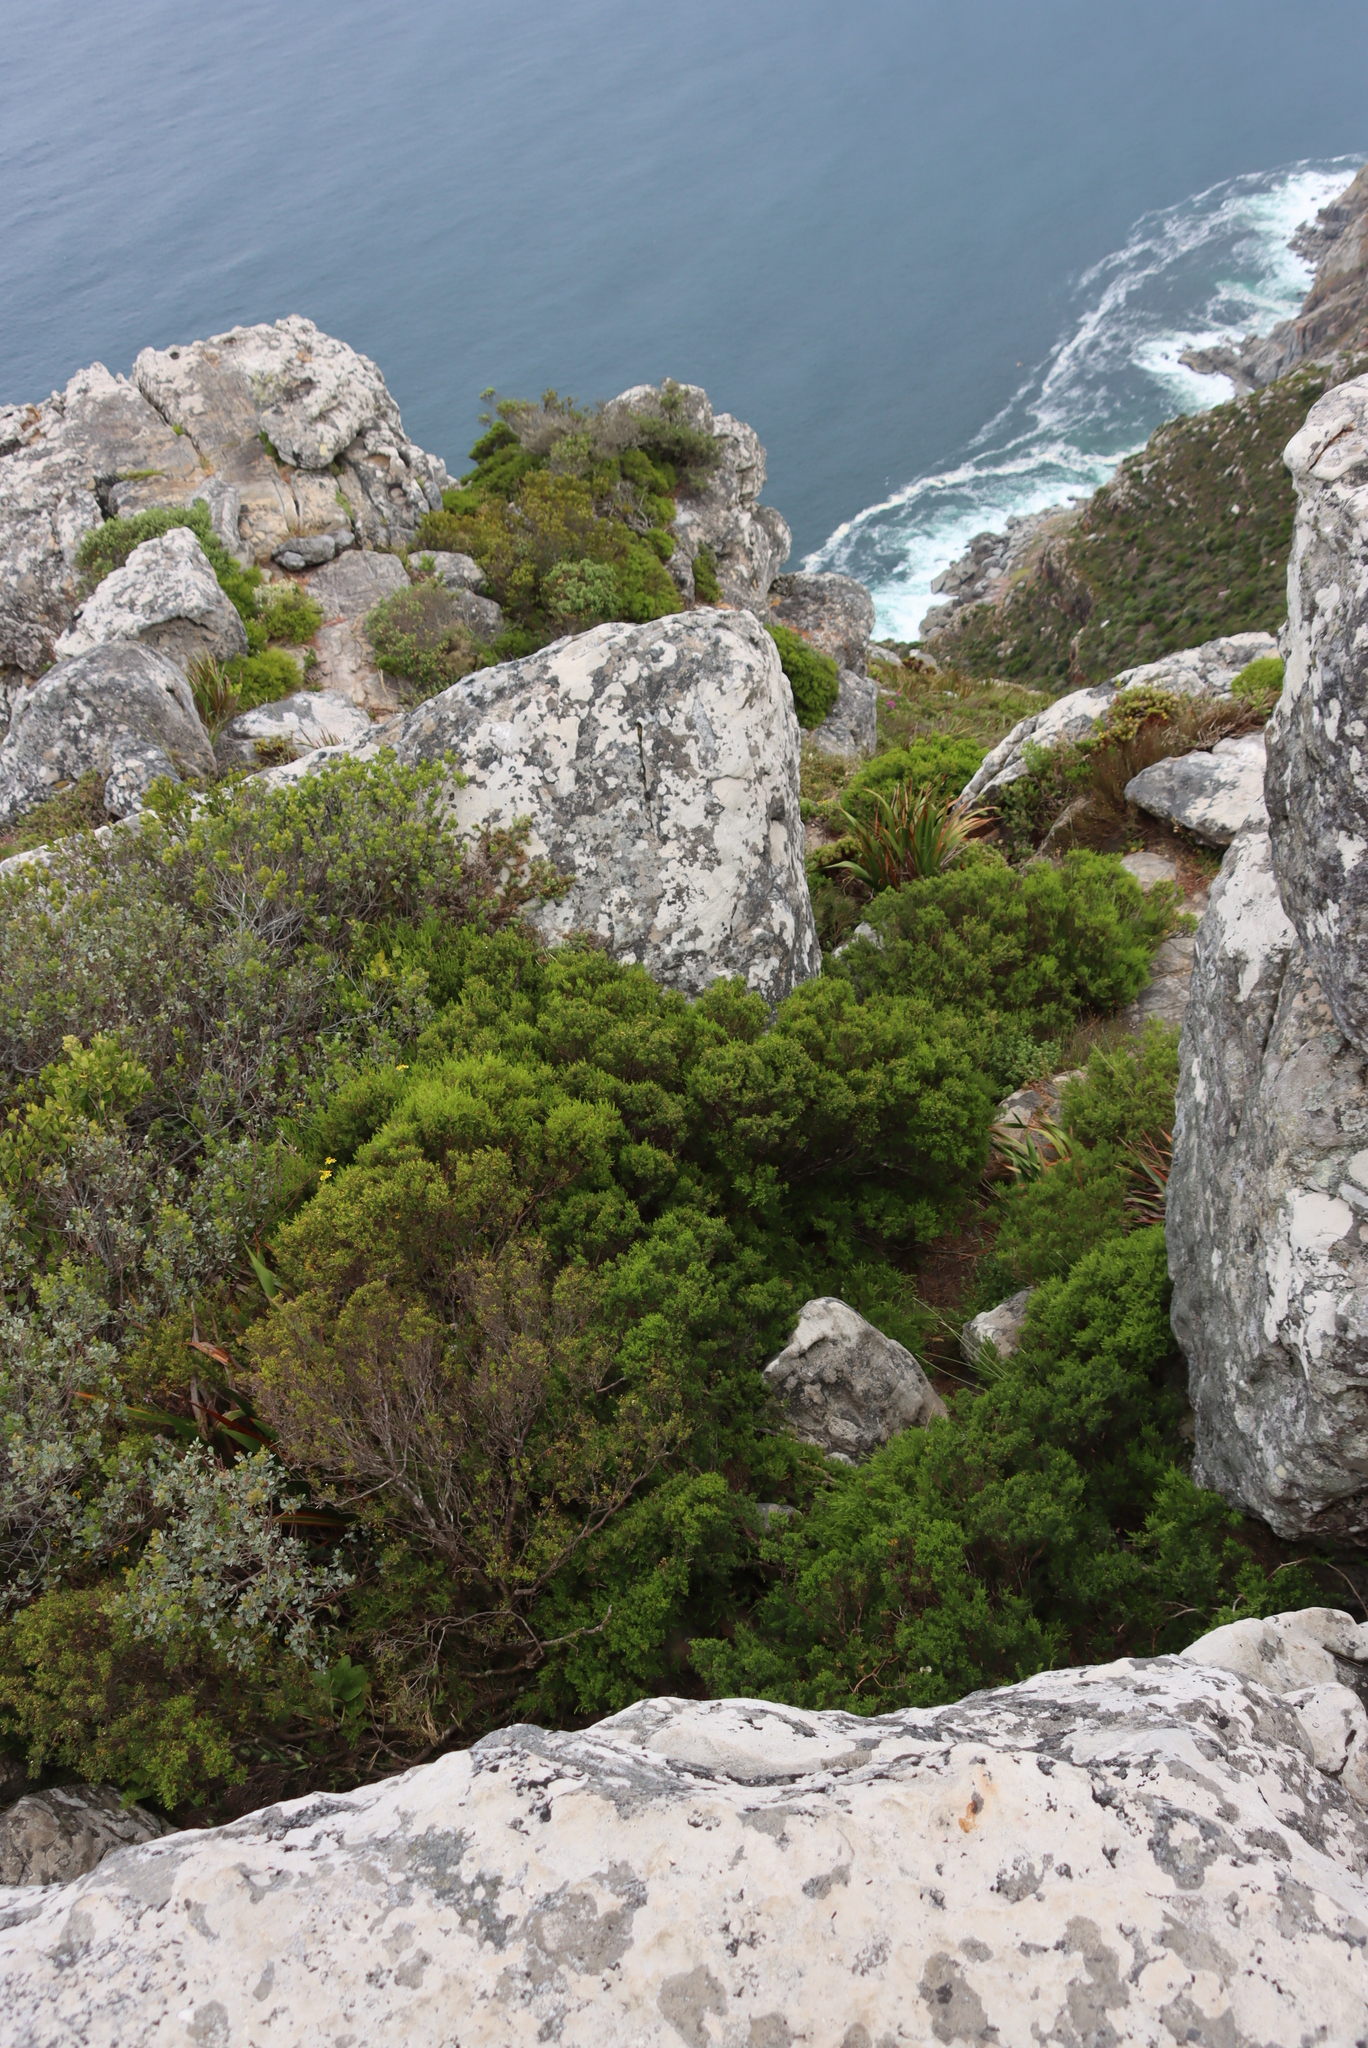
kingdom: Plantae
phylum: Tracheophyta
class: Magnoliopsida
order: Sapindales
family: Rutaceae
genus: Coleonema
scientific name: Coleonema album
